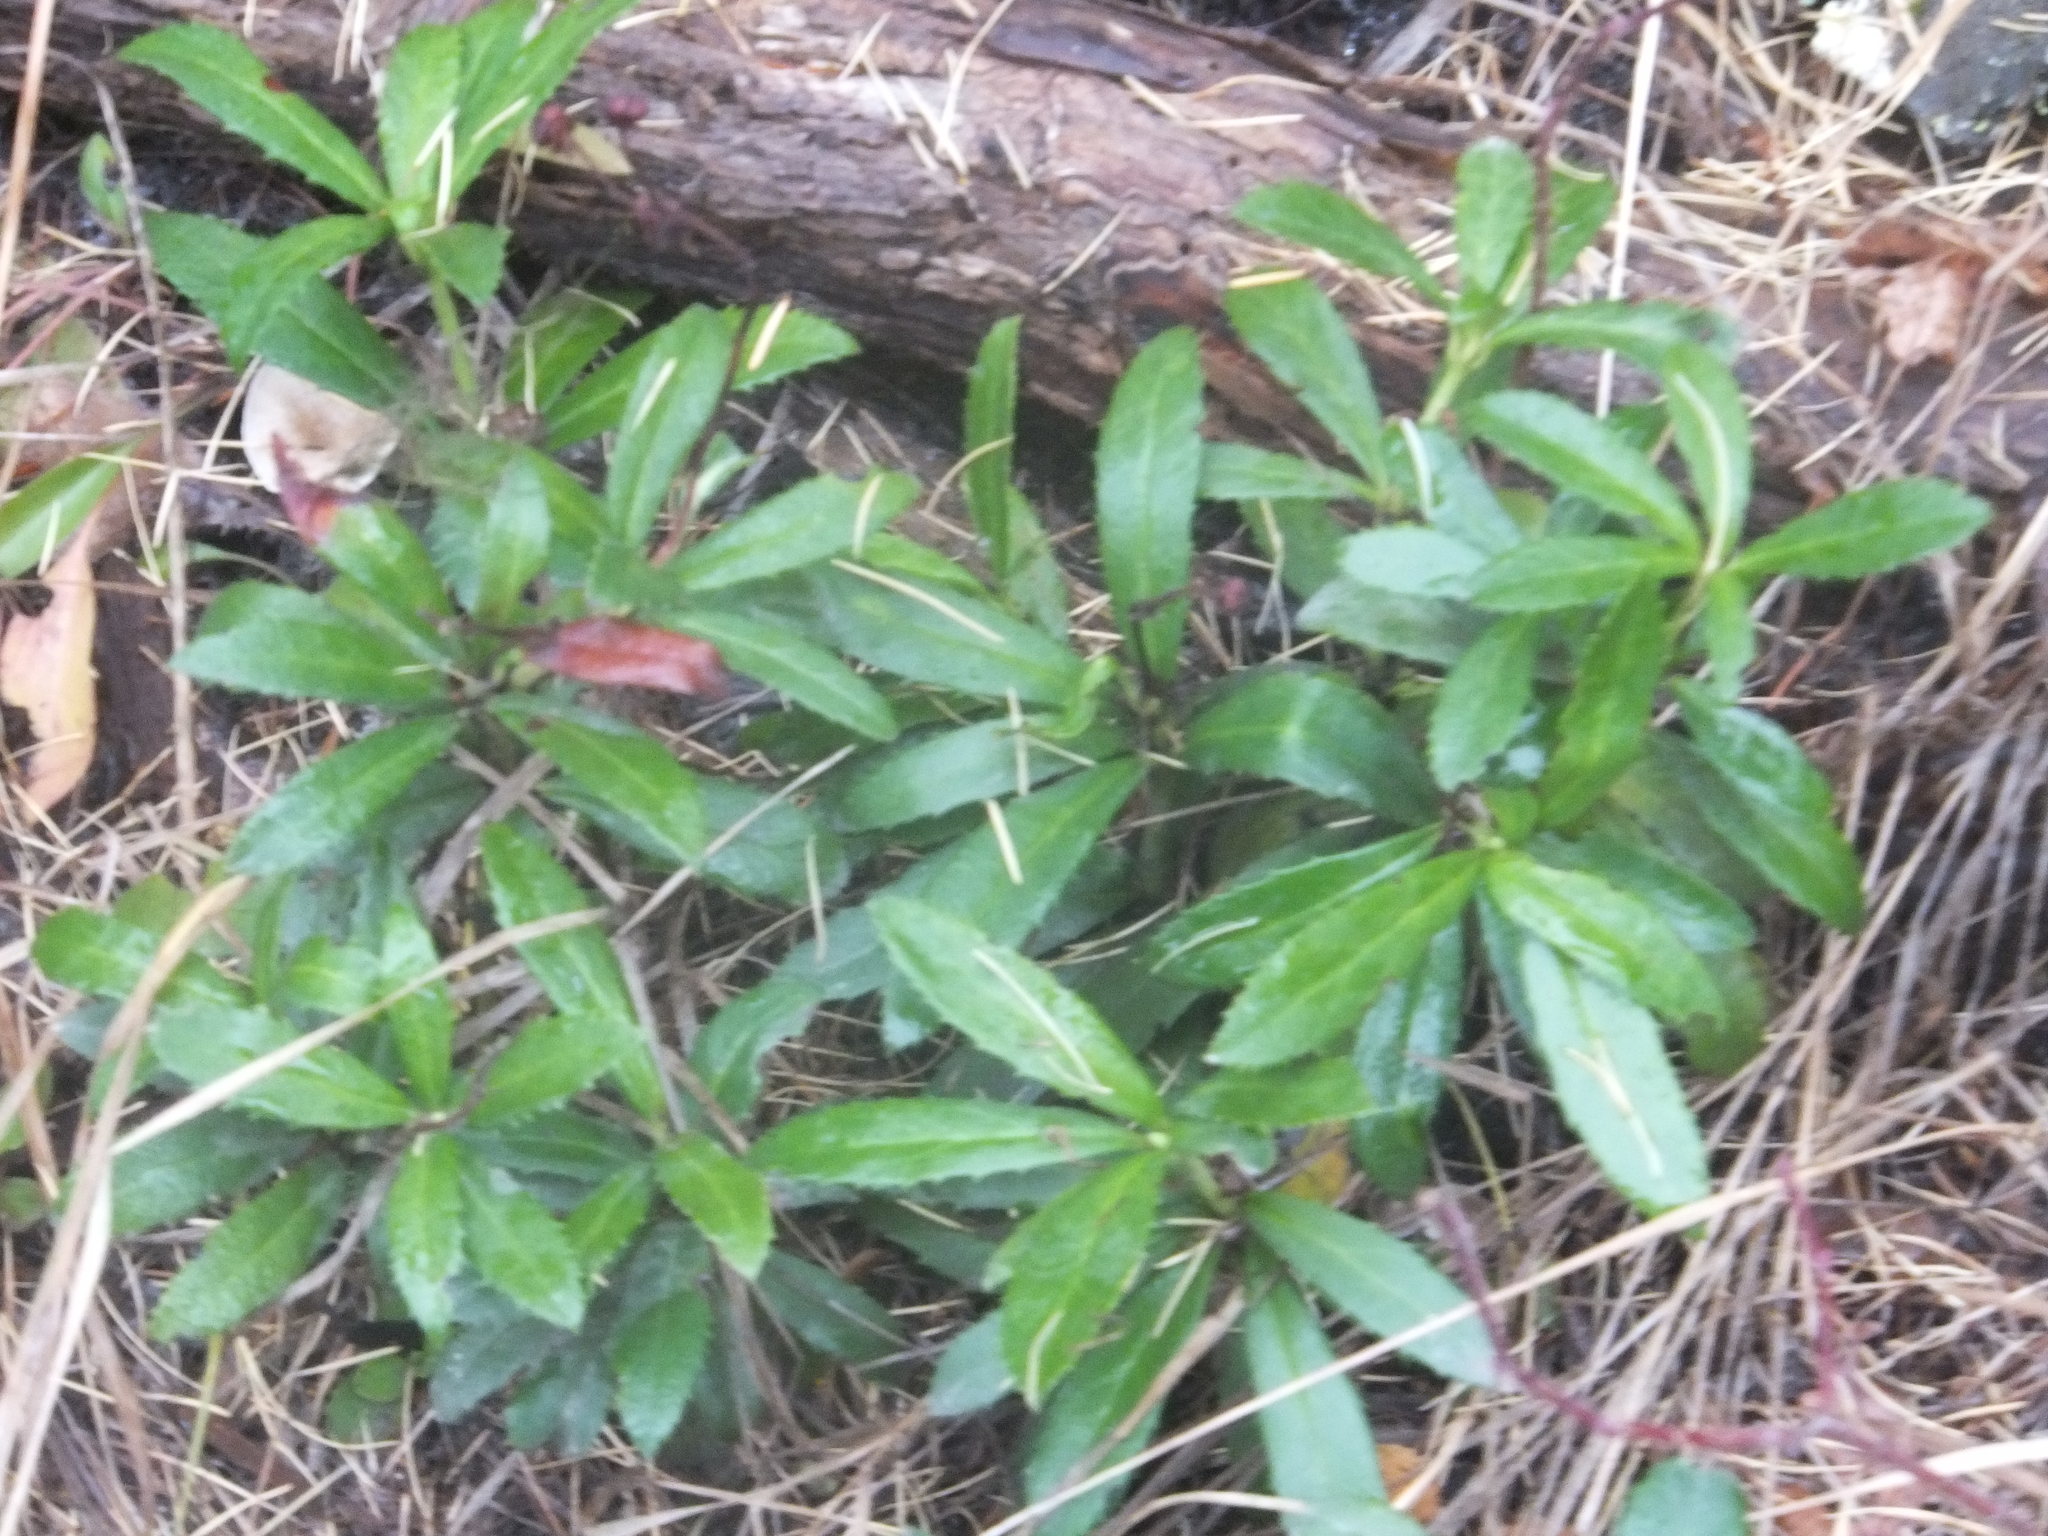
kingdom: Plantae
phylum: Tracheophyta
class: Magnoliopsida
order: Ericales
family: Ericaceae
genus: Chimaphila
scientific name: Chimaphila umbellata
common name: Pipsissewa
